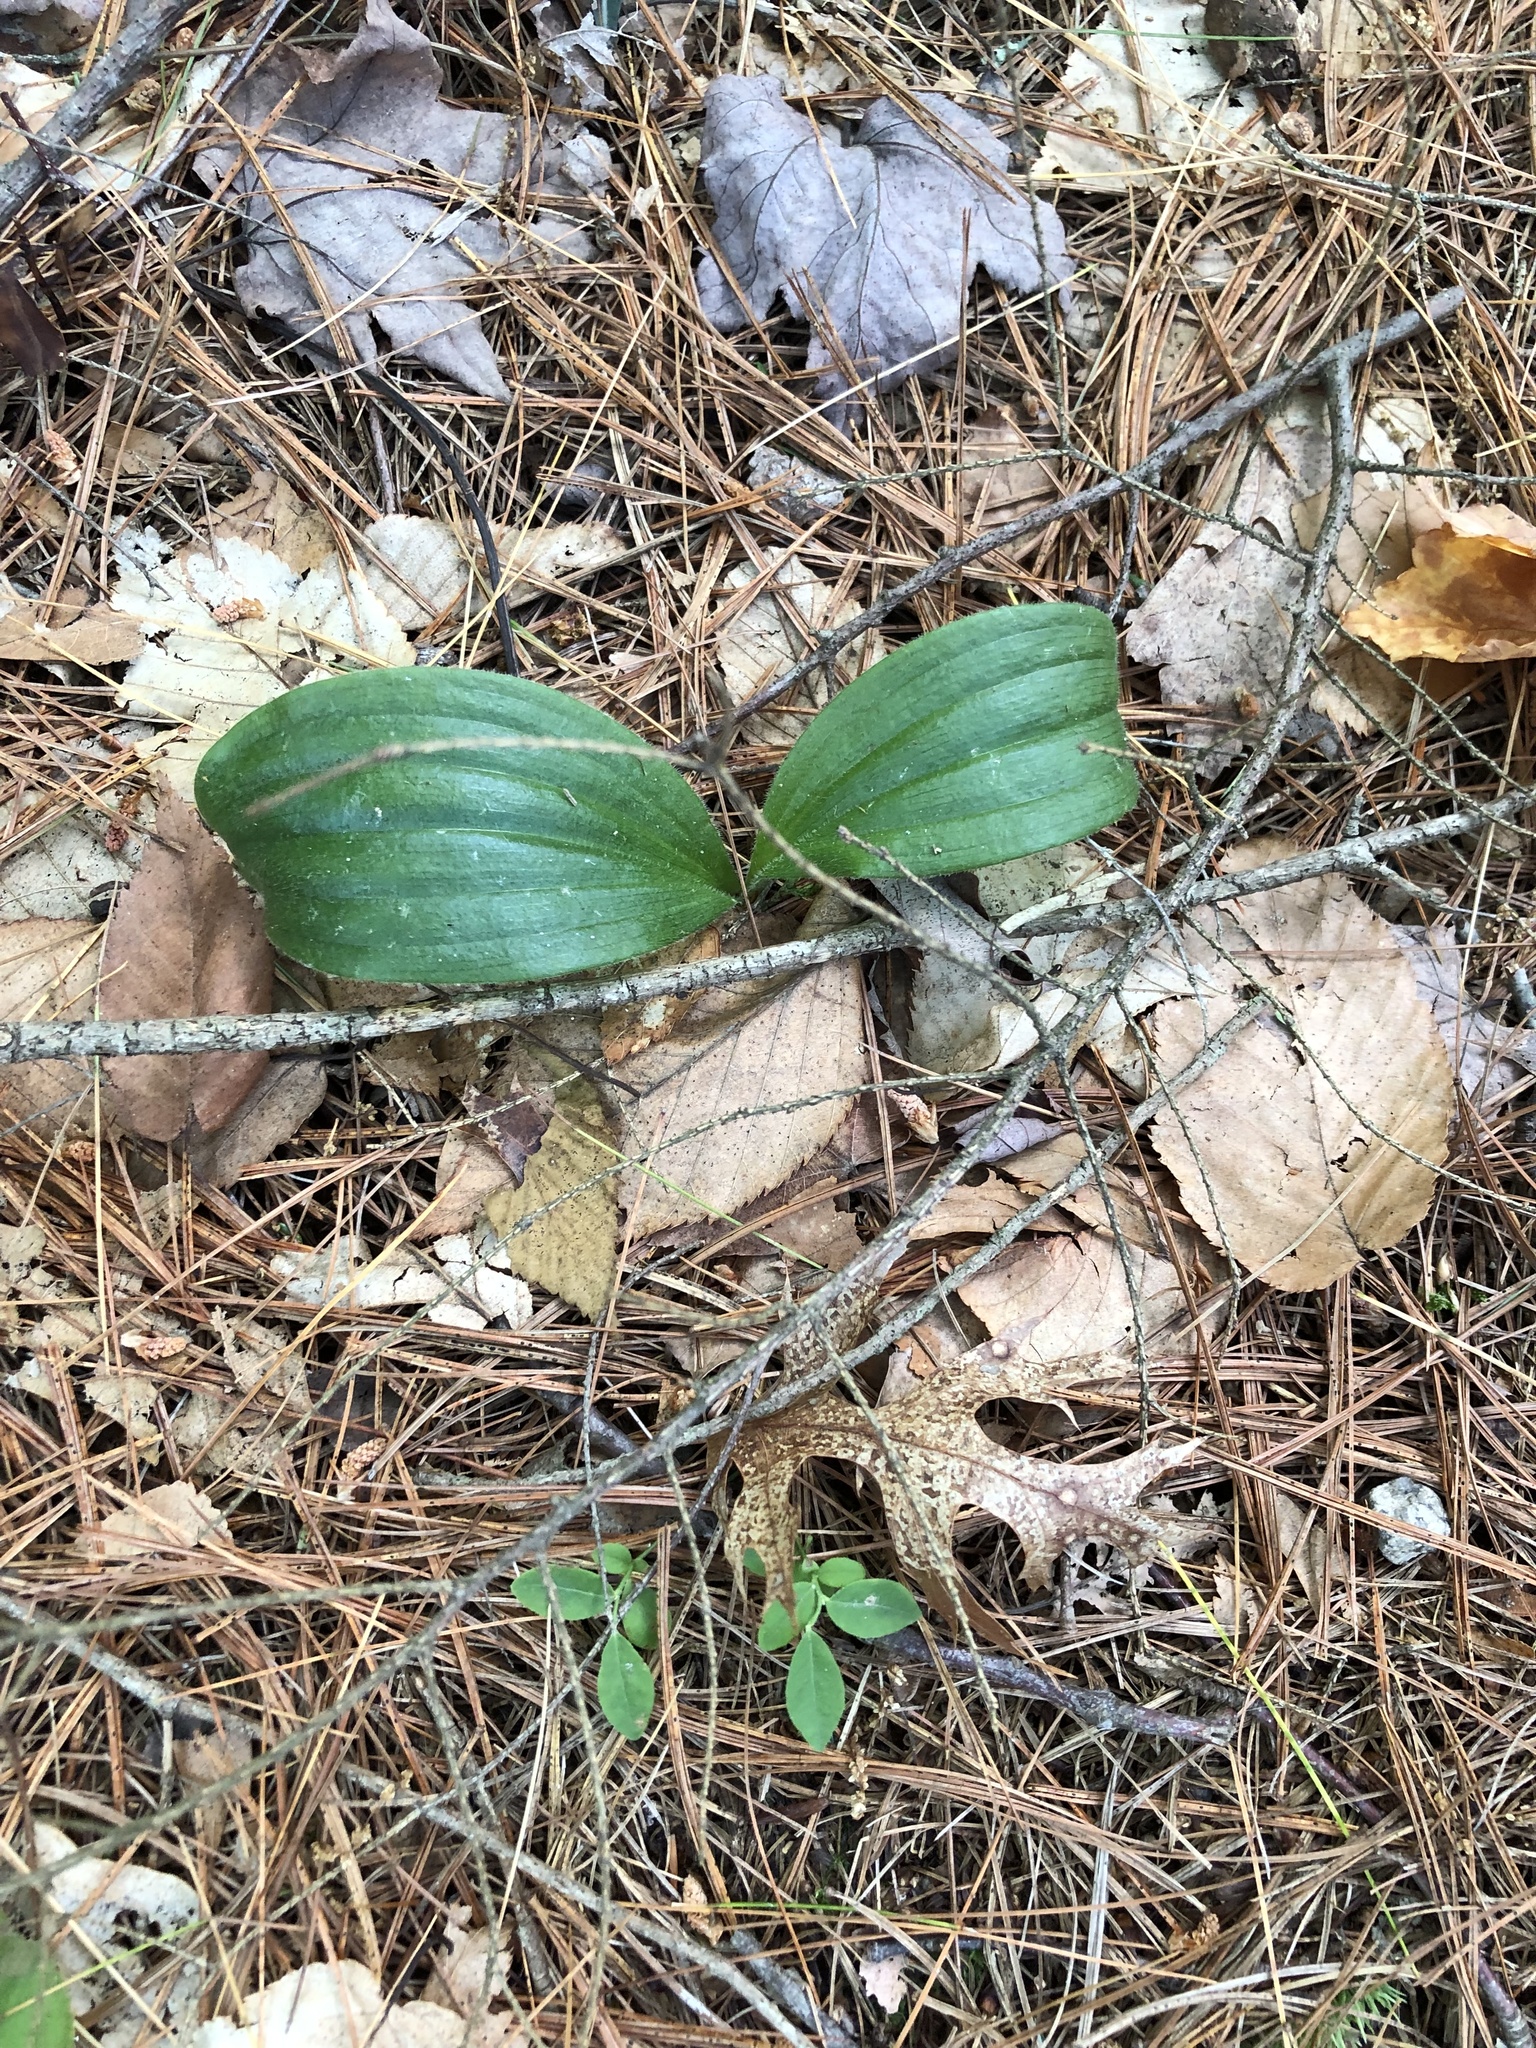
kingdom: Plantae
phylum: Tracheophyta
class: Liliopsida
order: Asparagales
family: Orchidaceae
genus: Cypripedium
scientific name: Cypripedium acaule
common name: Pink lady's-slipper
